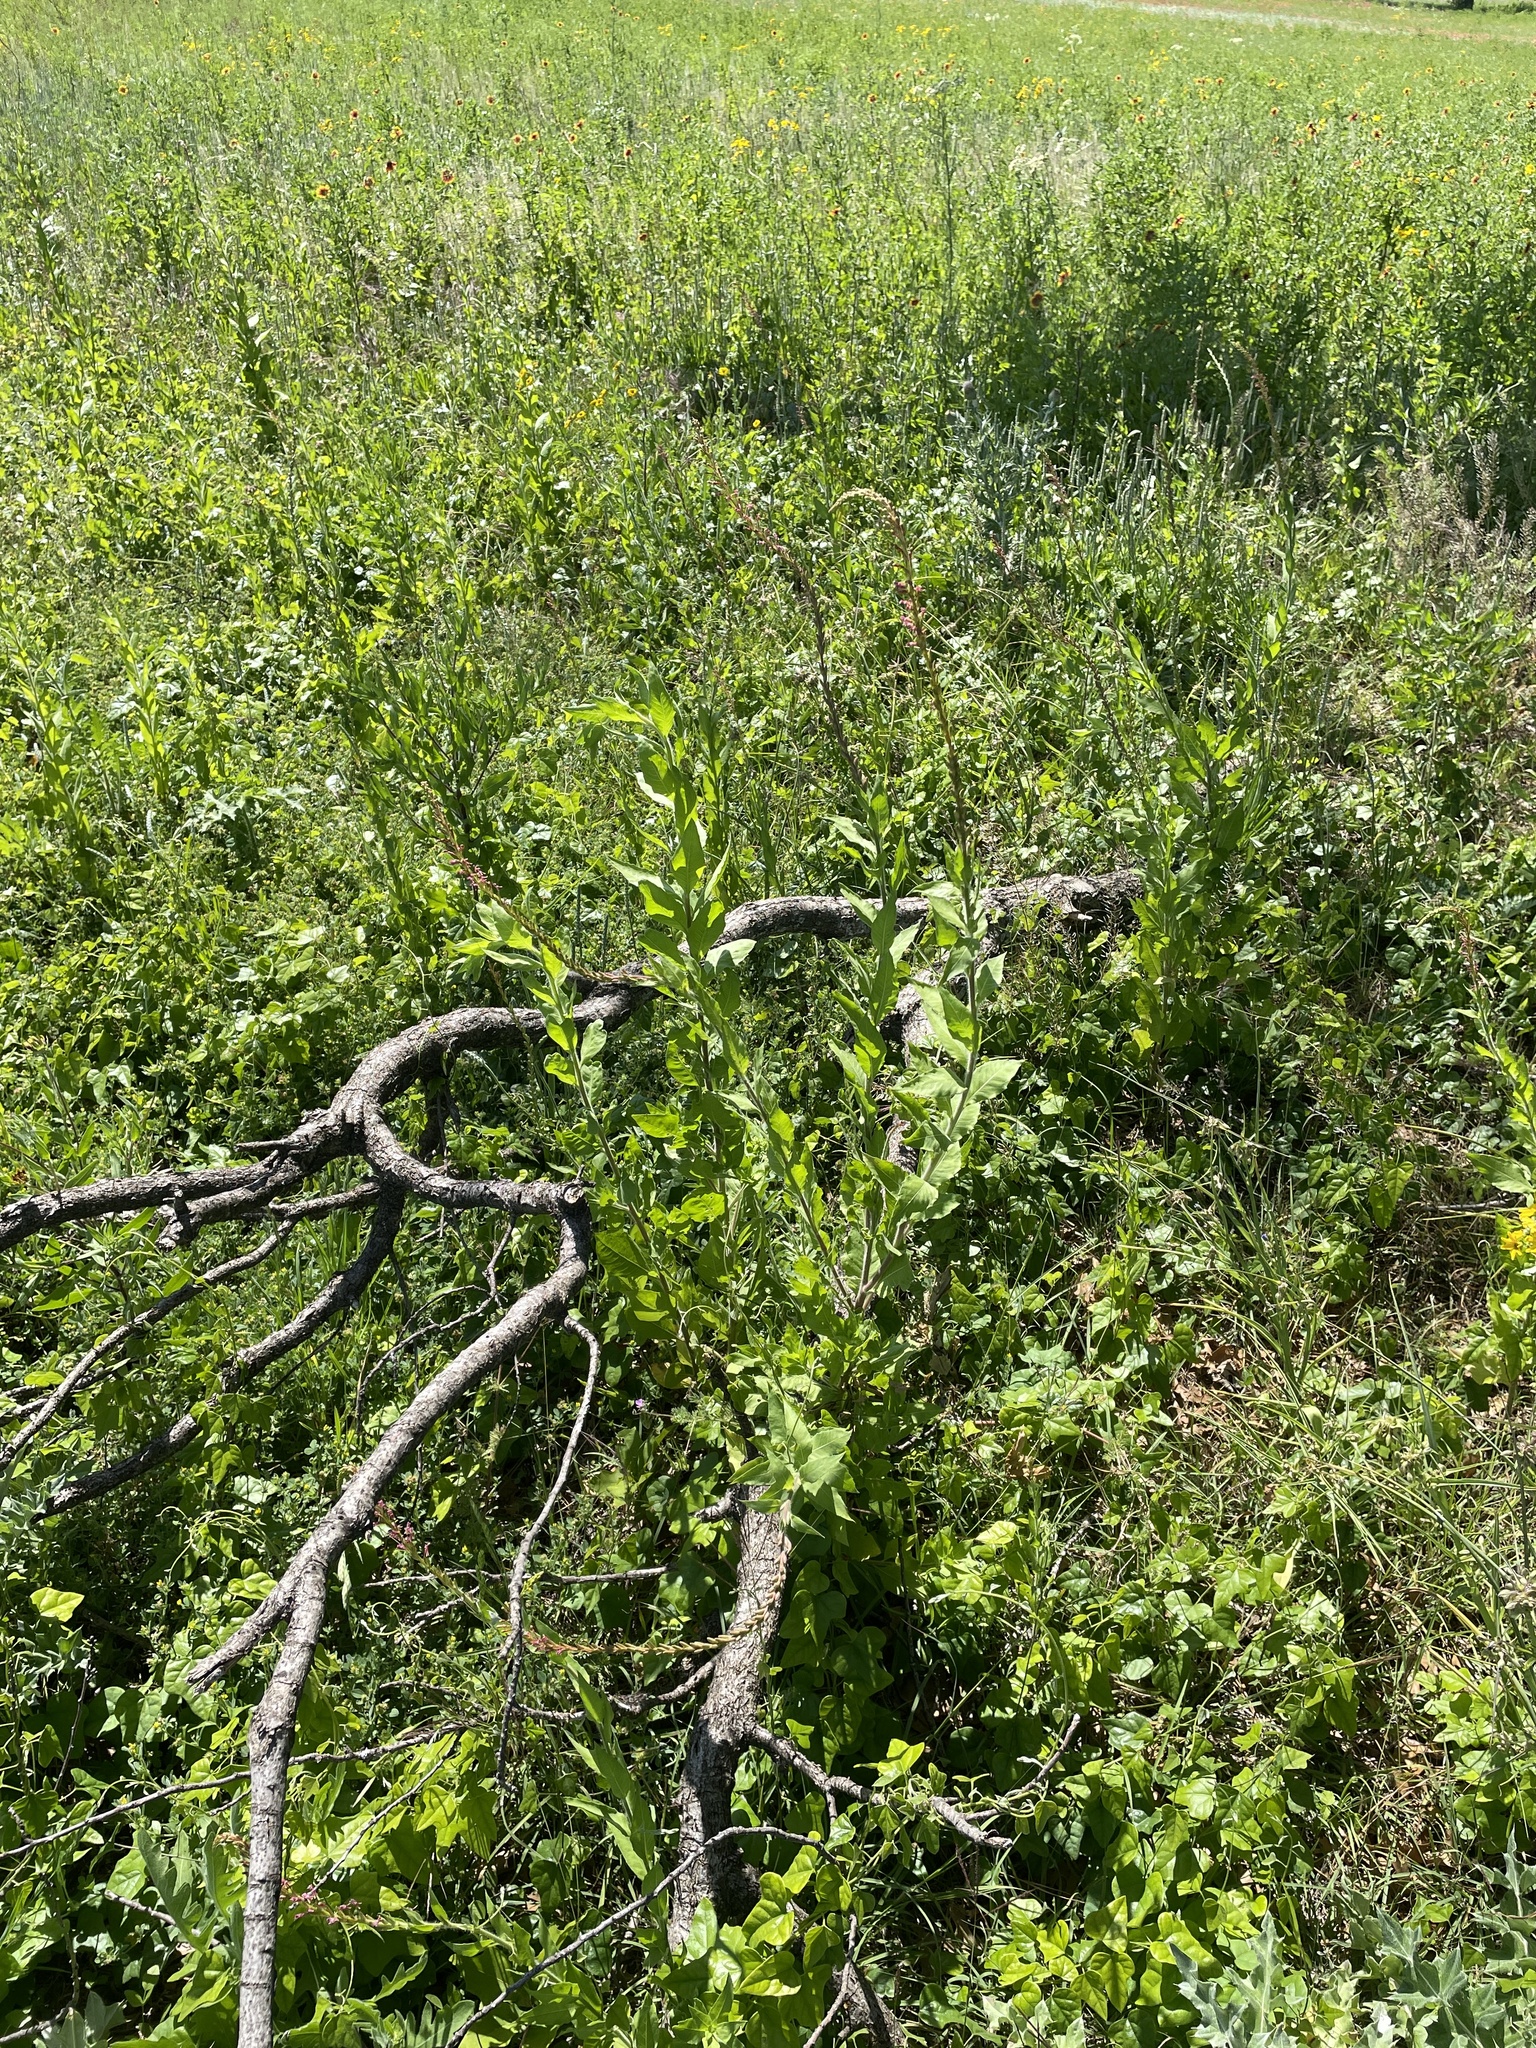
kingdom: Plantae
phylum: Tracheophyta
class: Magnoliopsida
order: Myrtales
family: Onagraceae
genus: Oenothera
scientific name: Oenothera curtiflora
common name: Velvetweed
